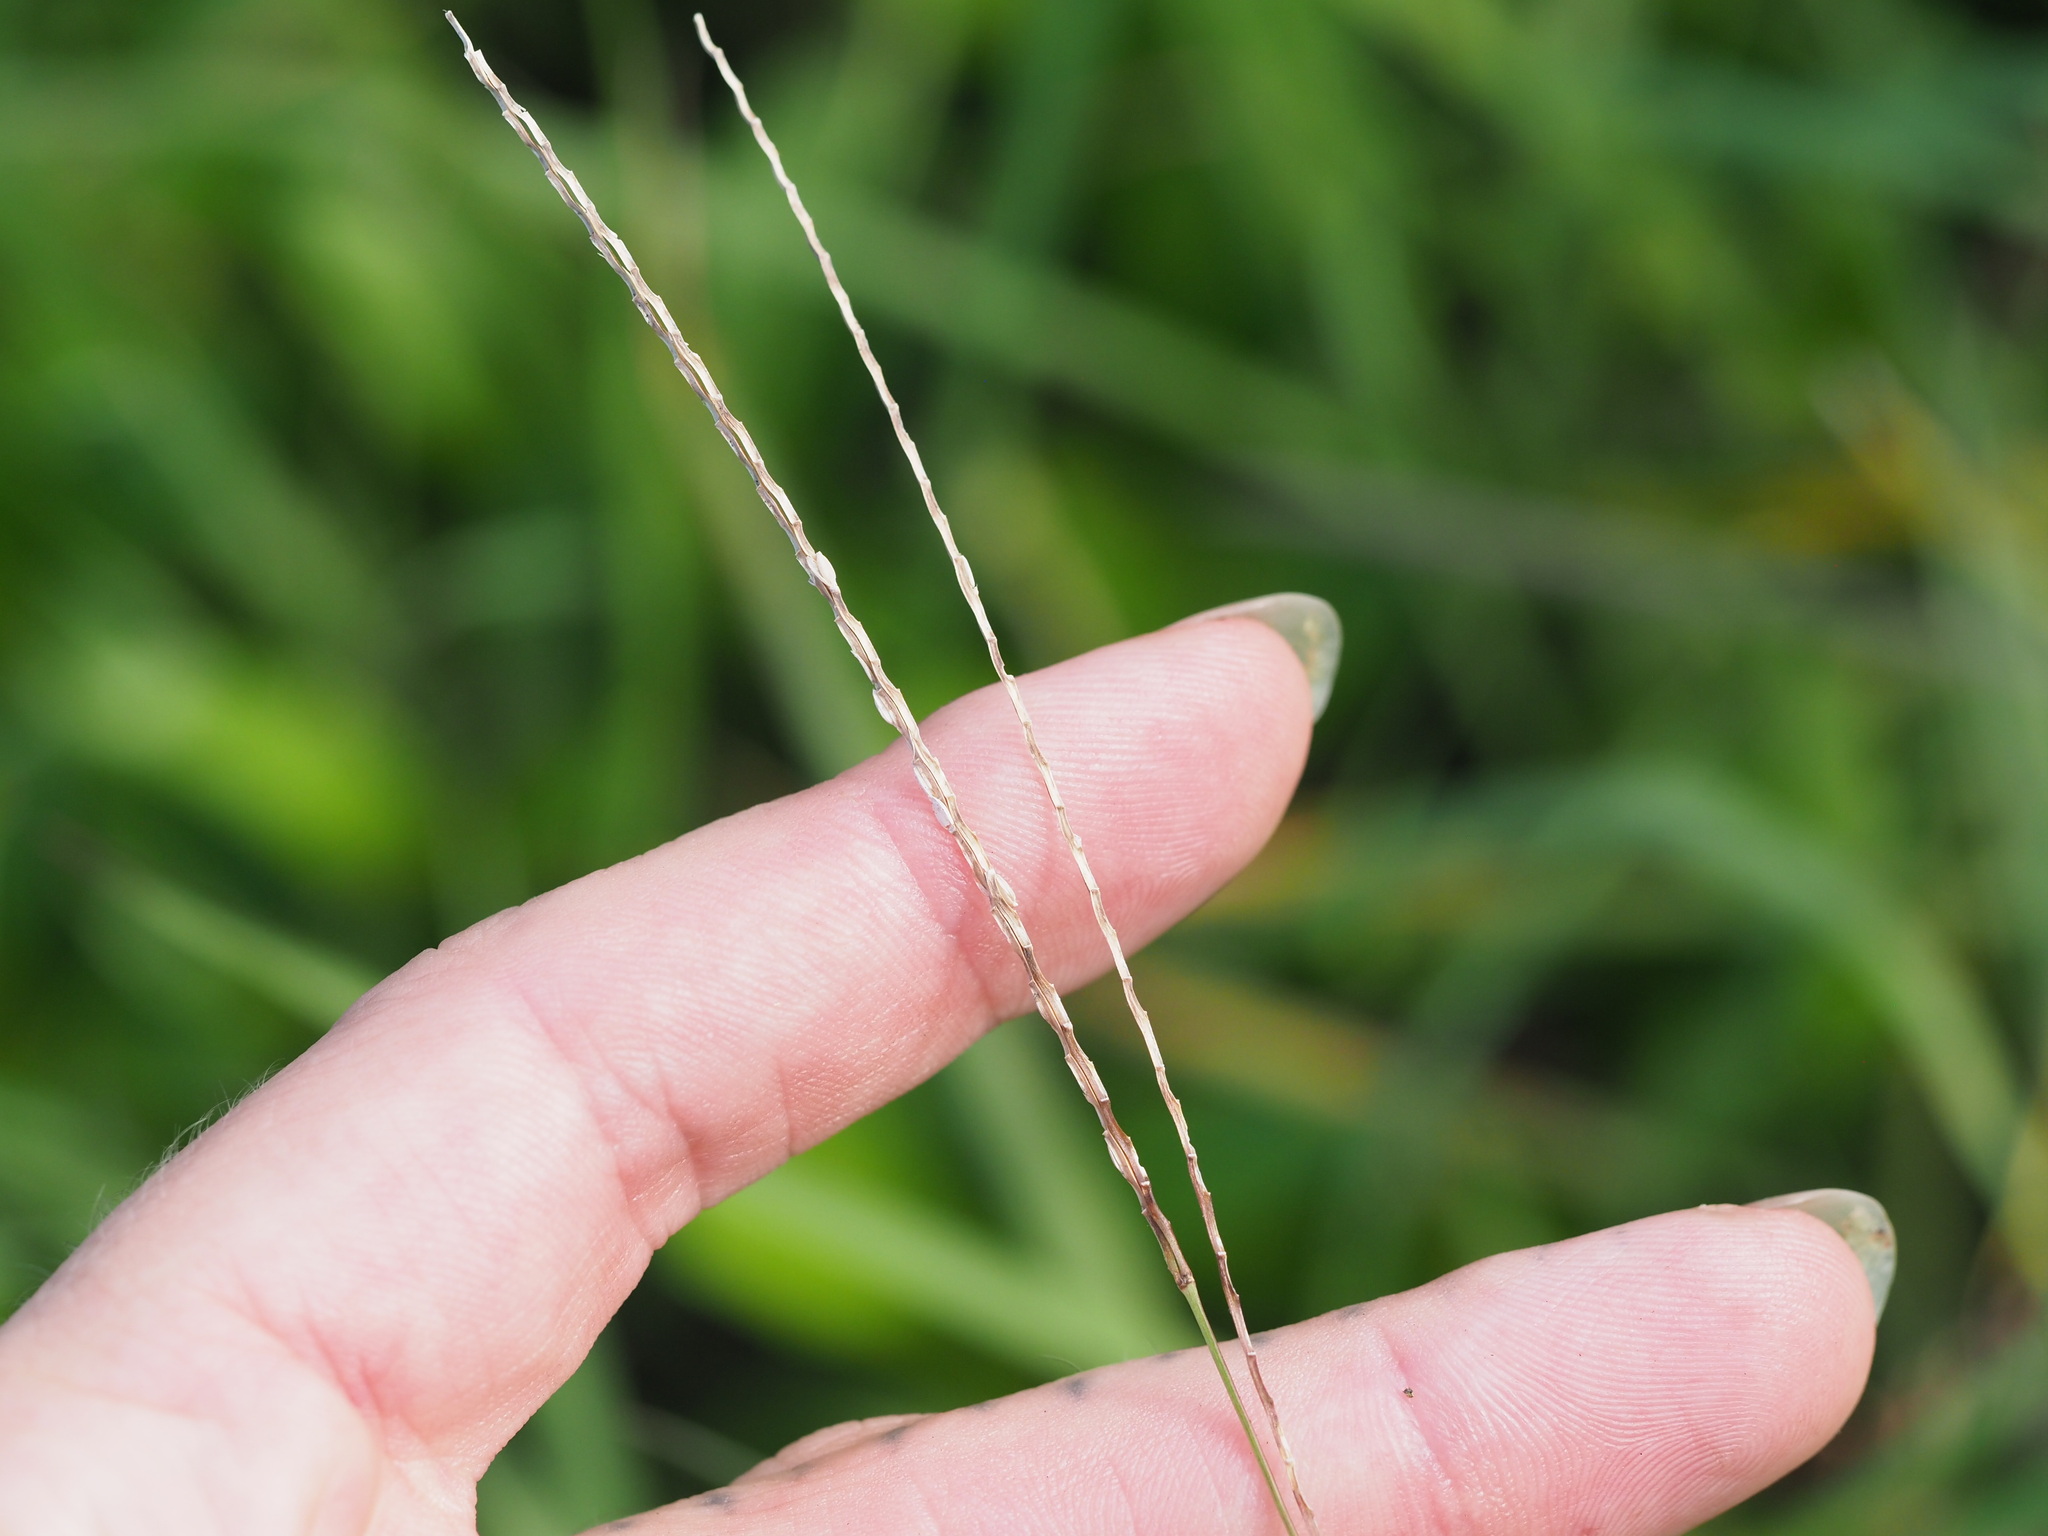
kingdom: Plantae
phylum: Tracheophyta
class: Liliopsida
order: Poales
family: Poaceae
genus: Axonopus
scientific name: Axonopus fissifolius
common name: Common carpetgrass
